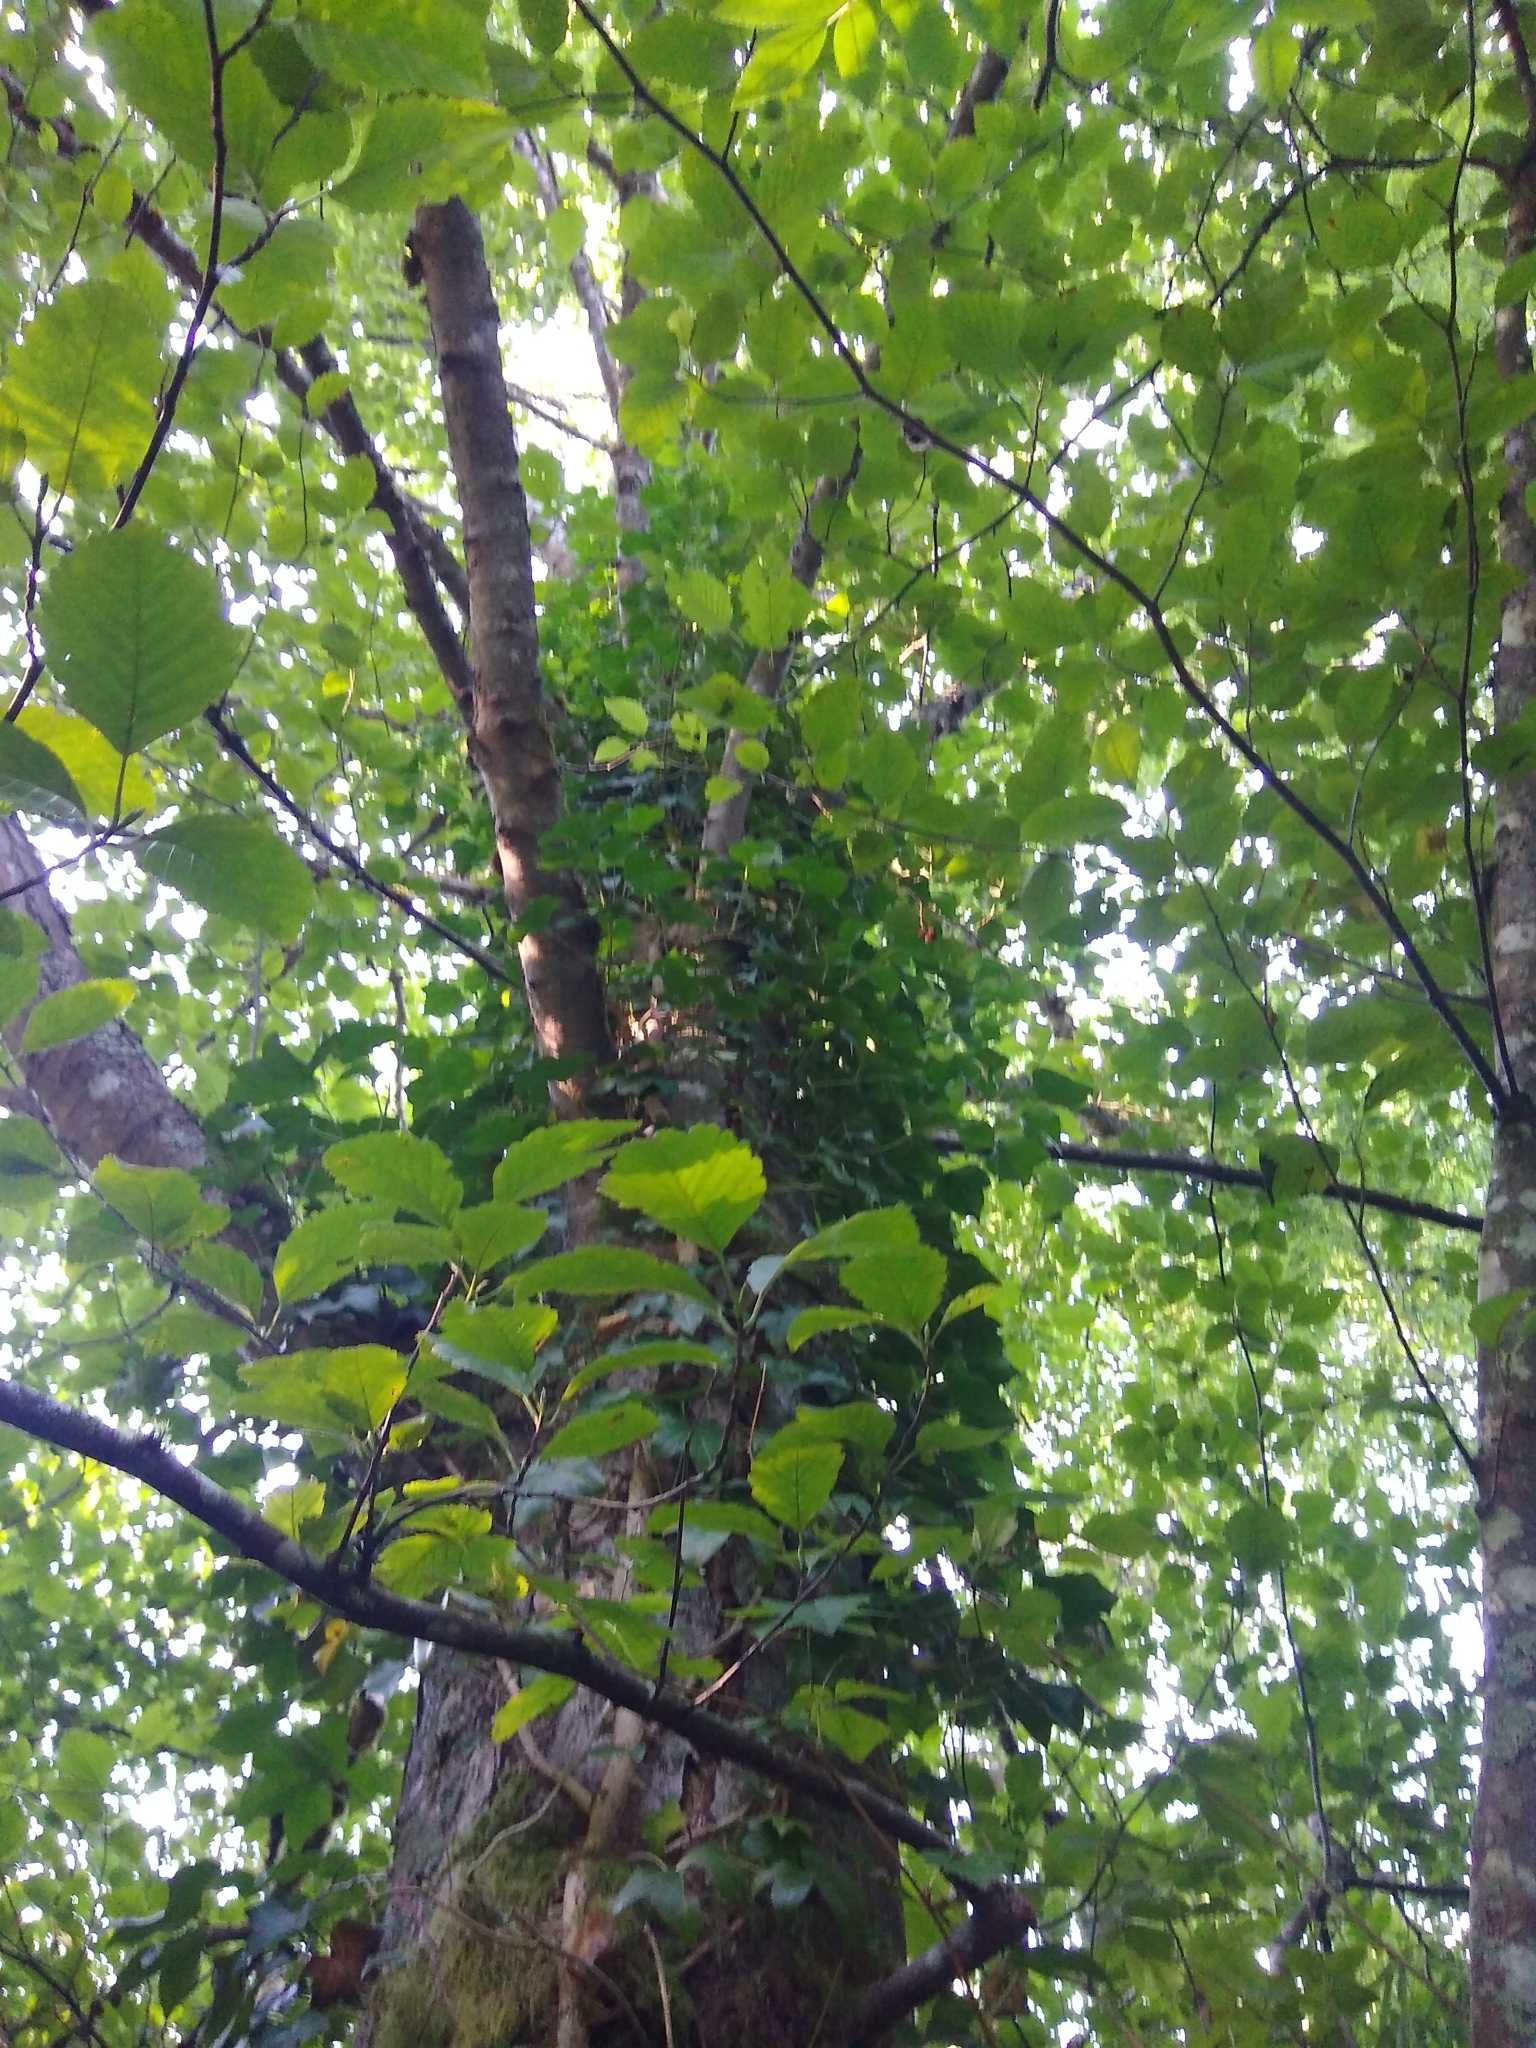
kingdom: Plantae
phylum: Tracheophyta
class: Magnoliopsida
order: Fagales
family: Betulaceae
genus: Alnus
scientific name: Alnus rubra
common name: Red alder
